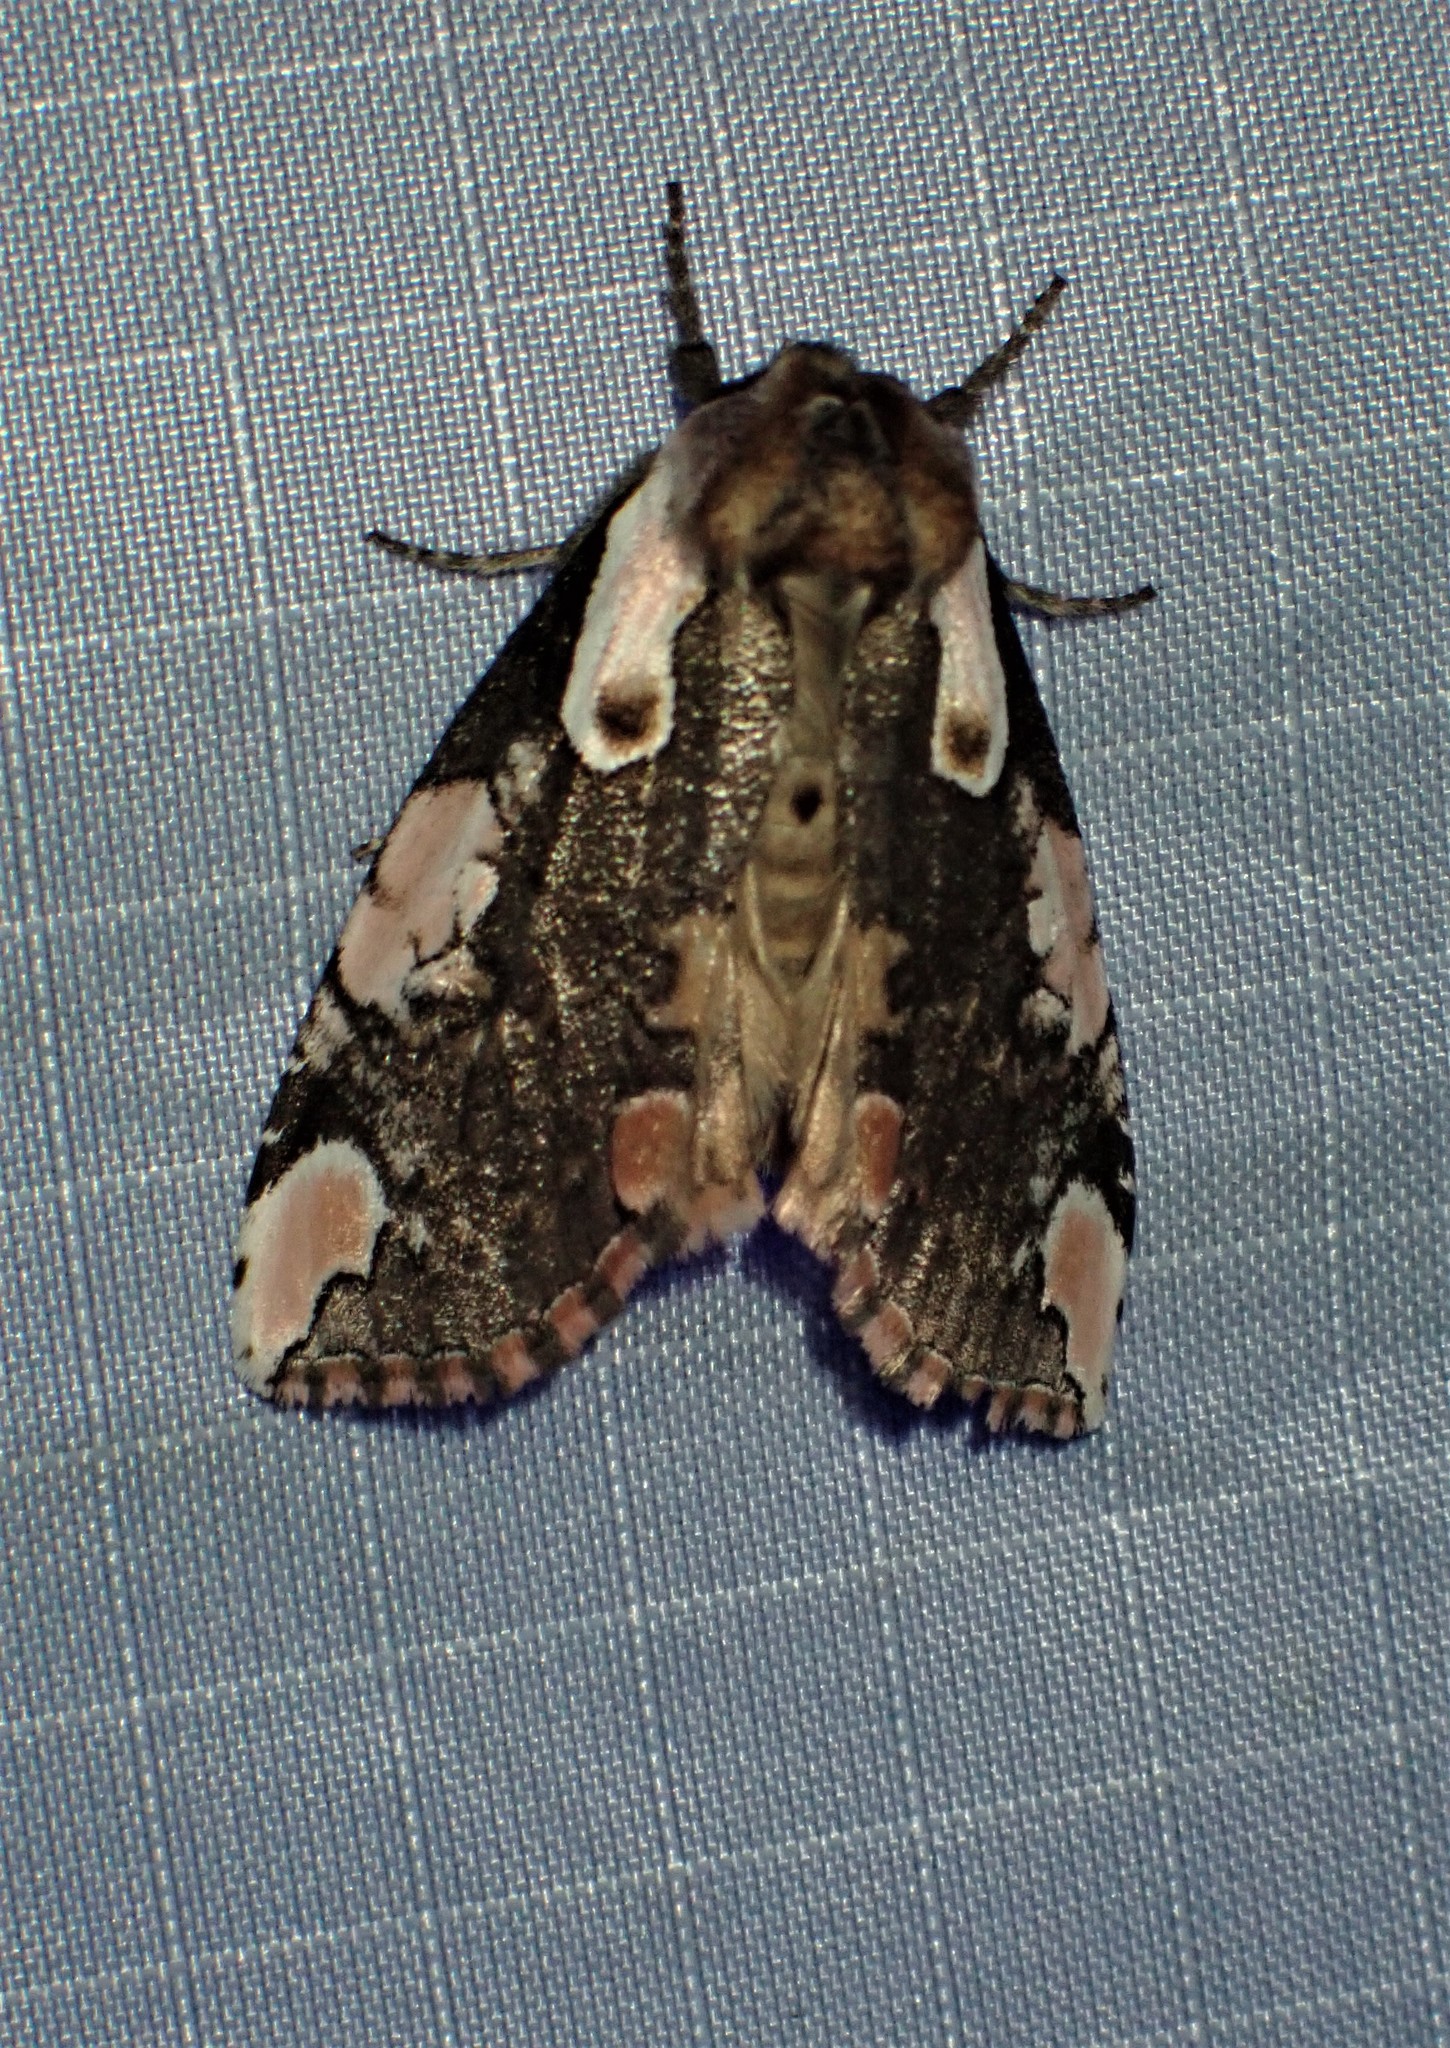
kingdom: Animalia
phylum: Arthropoda
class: Insecta
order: Lepidoptera
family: Drepanidae
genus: Euthyatira
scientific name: Euthyatira pudens
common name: Dogwood thyatirid moth
